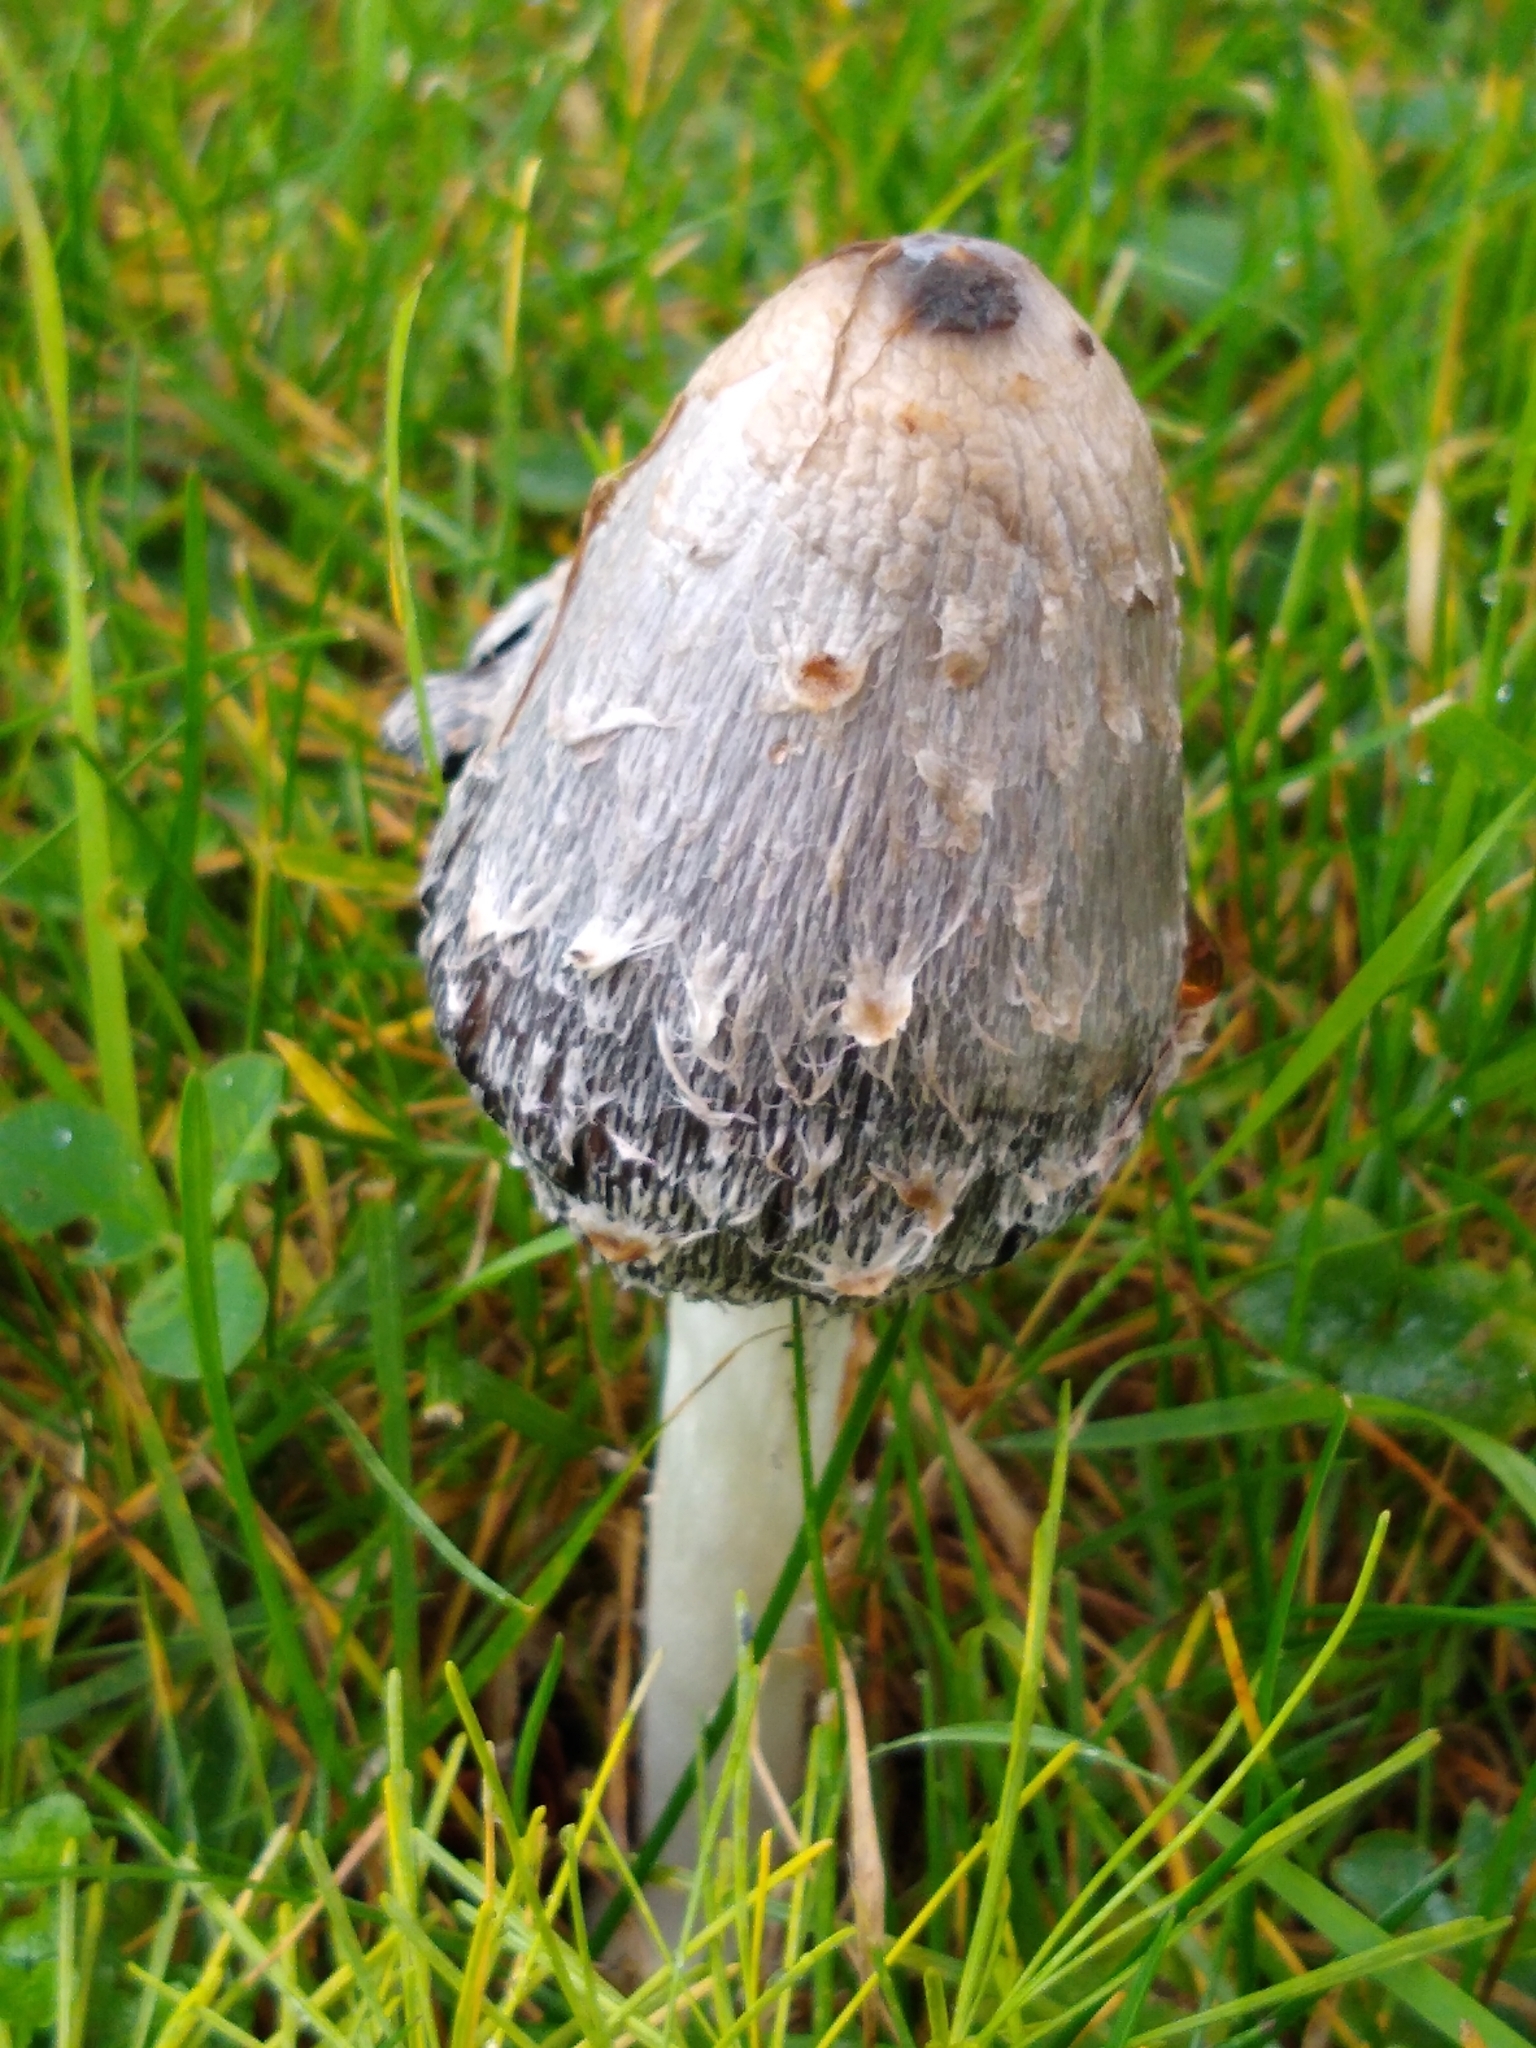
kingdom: Fungi
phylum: Basidiomycota
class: Agaricomycetes
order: Agaricales
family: Agaricaceae
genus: Coprinus
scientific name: Coprinus comatus
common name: Lawyer's wig
